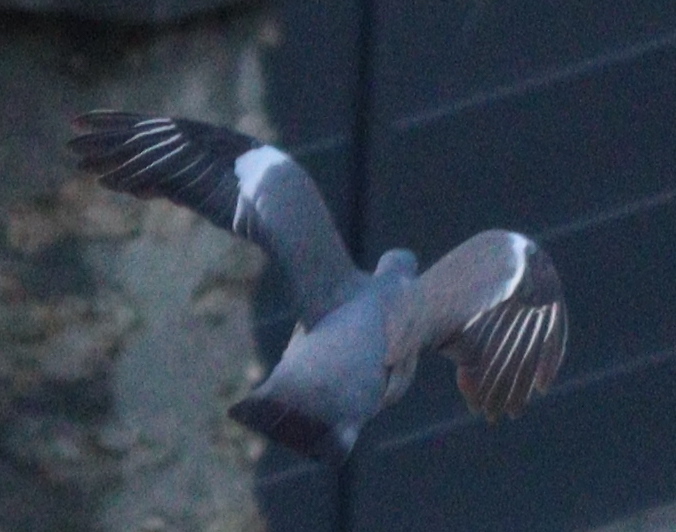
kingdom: Animalia
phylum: Chordata
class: Aves
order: Columbiformes
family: Columbidae
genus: Columba
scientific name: Columba palumbus
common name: Common wood pigeon
